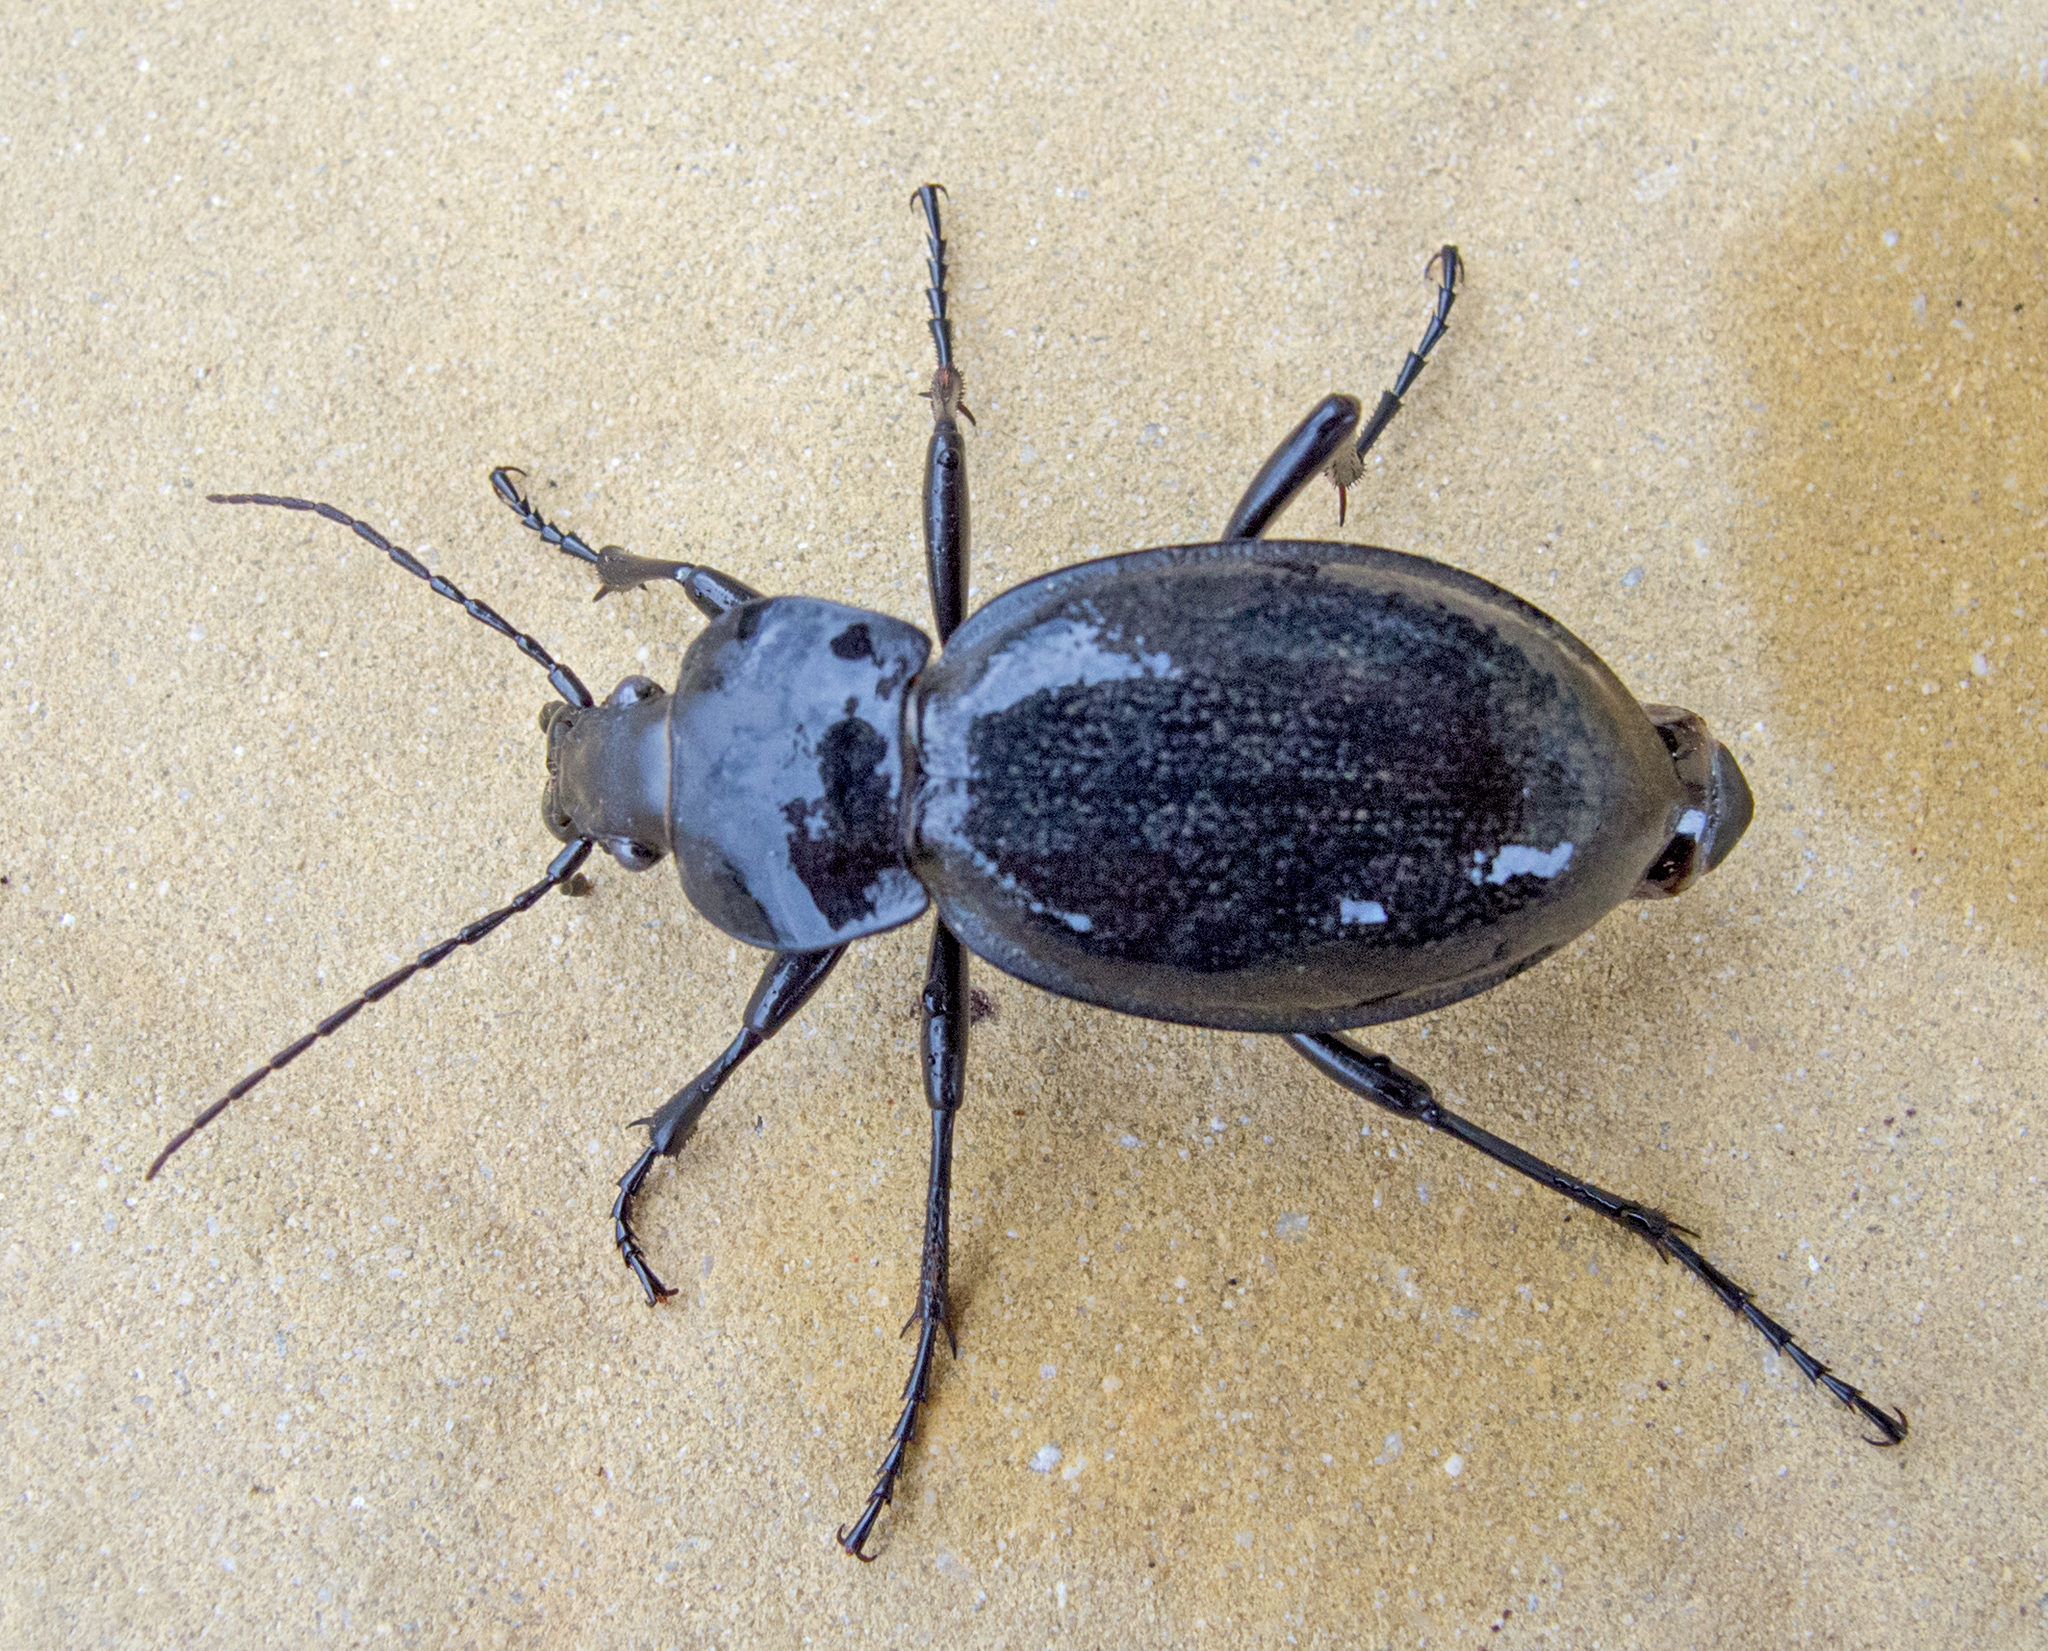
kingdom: Animalia
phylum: Arthropoda
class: Insecta
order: Coleoptera
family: Carabidae
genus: Carabus
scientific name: Carabus coriaceus
